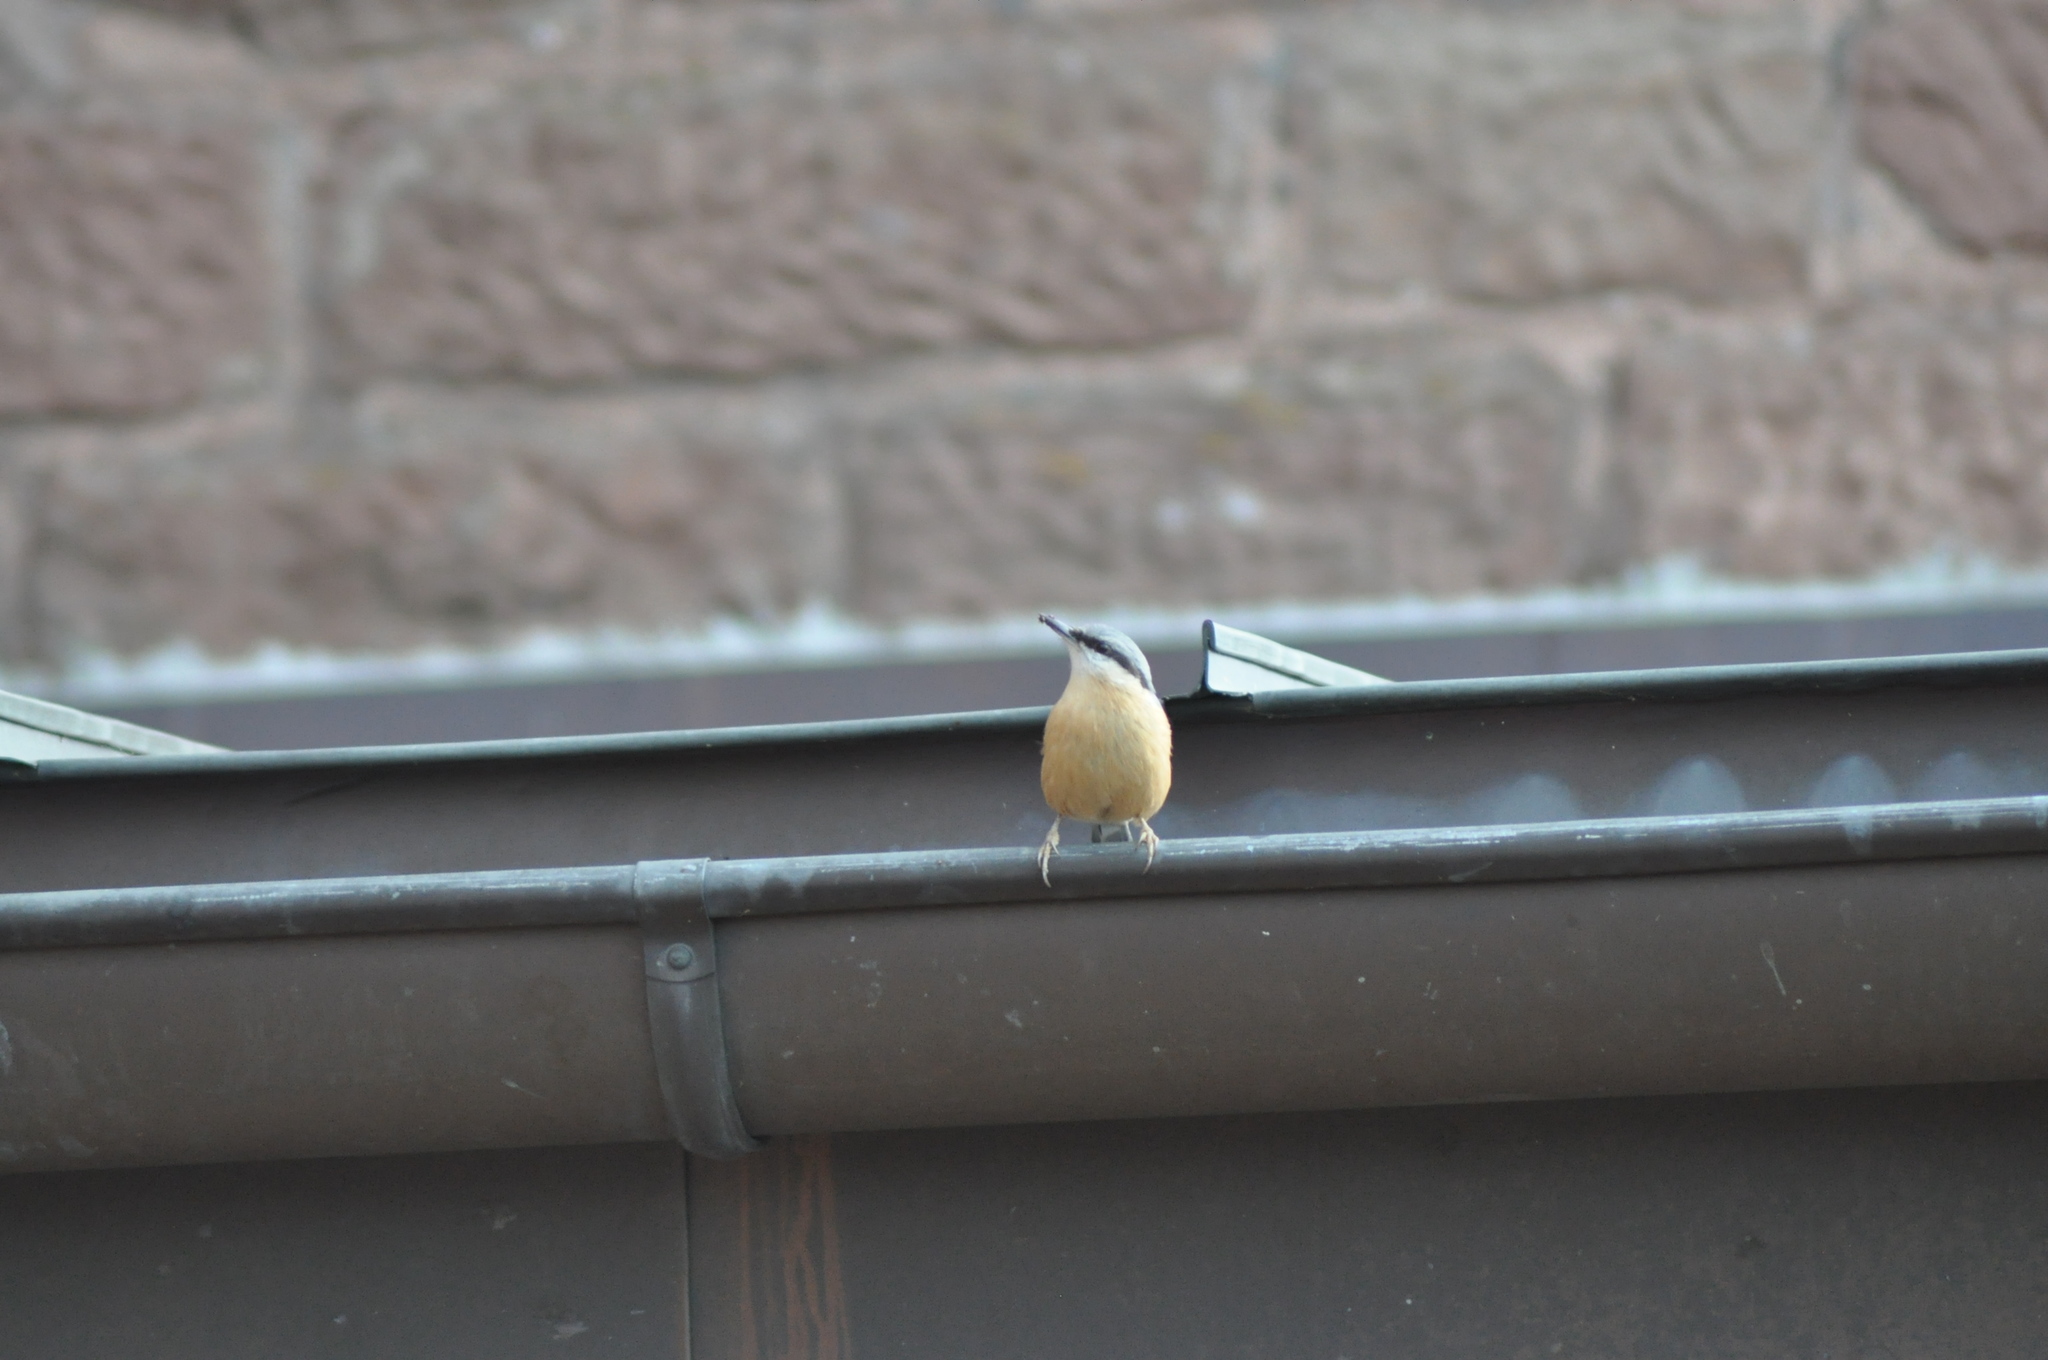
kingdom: Animalia
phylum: Chordata
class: Aves
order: Passeriformes
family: Sittidae
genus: Sitta
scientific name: Sitta europaea
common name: Eurasian nuthatch
